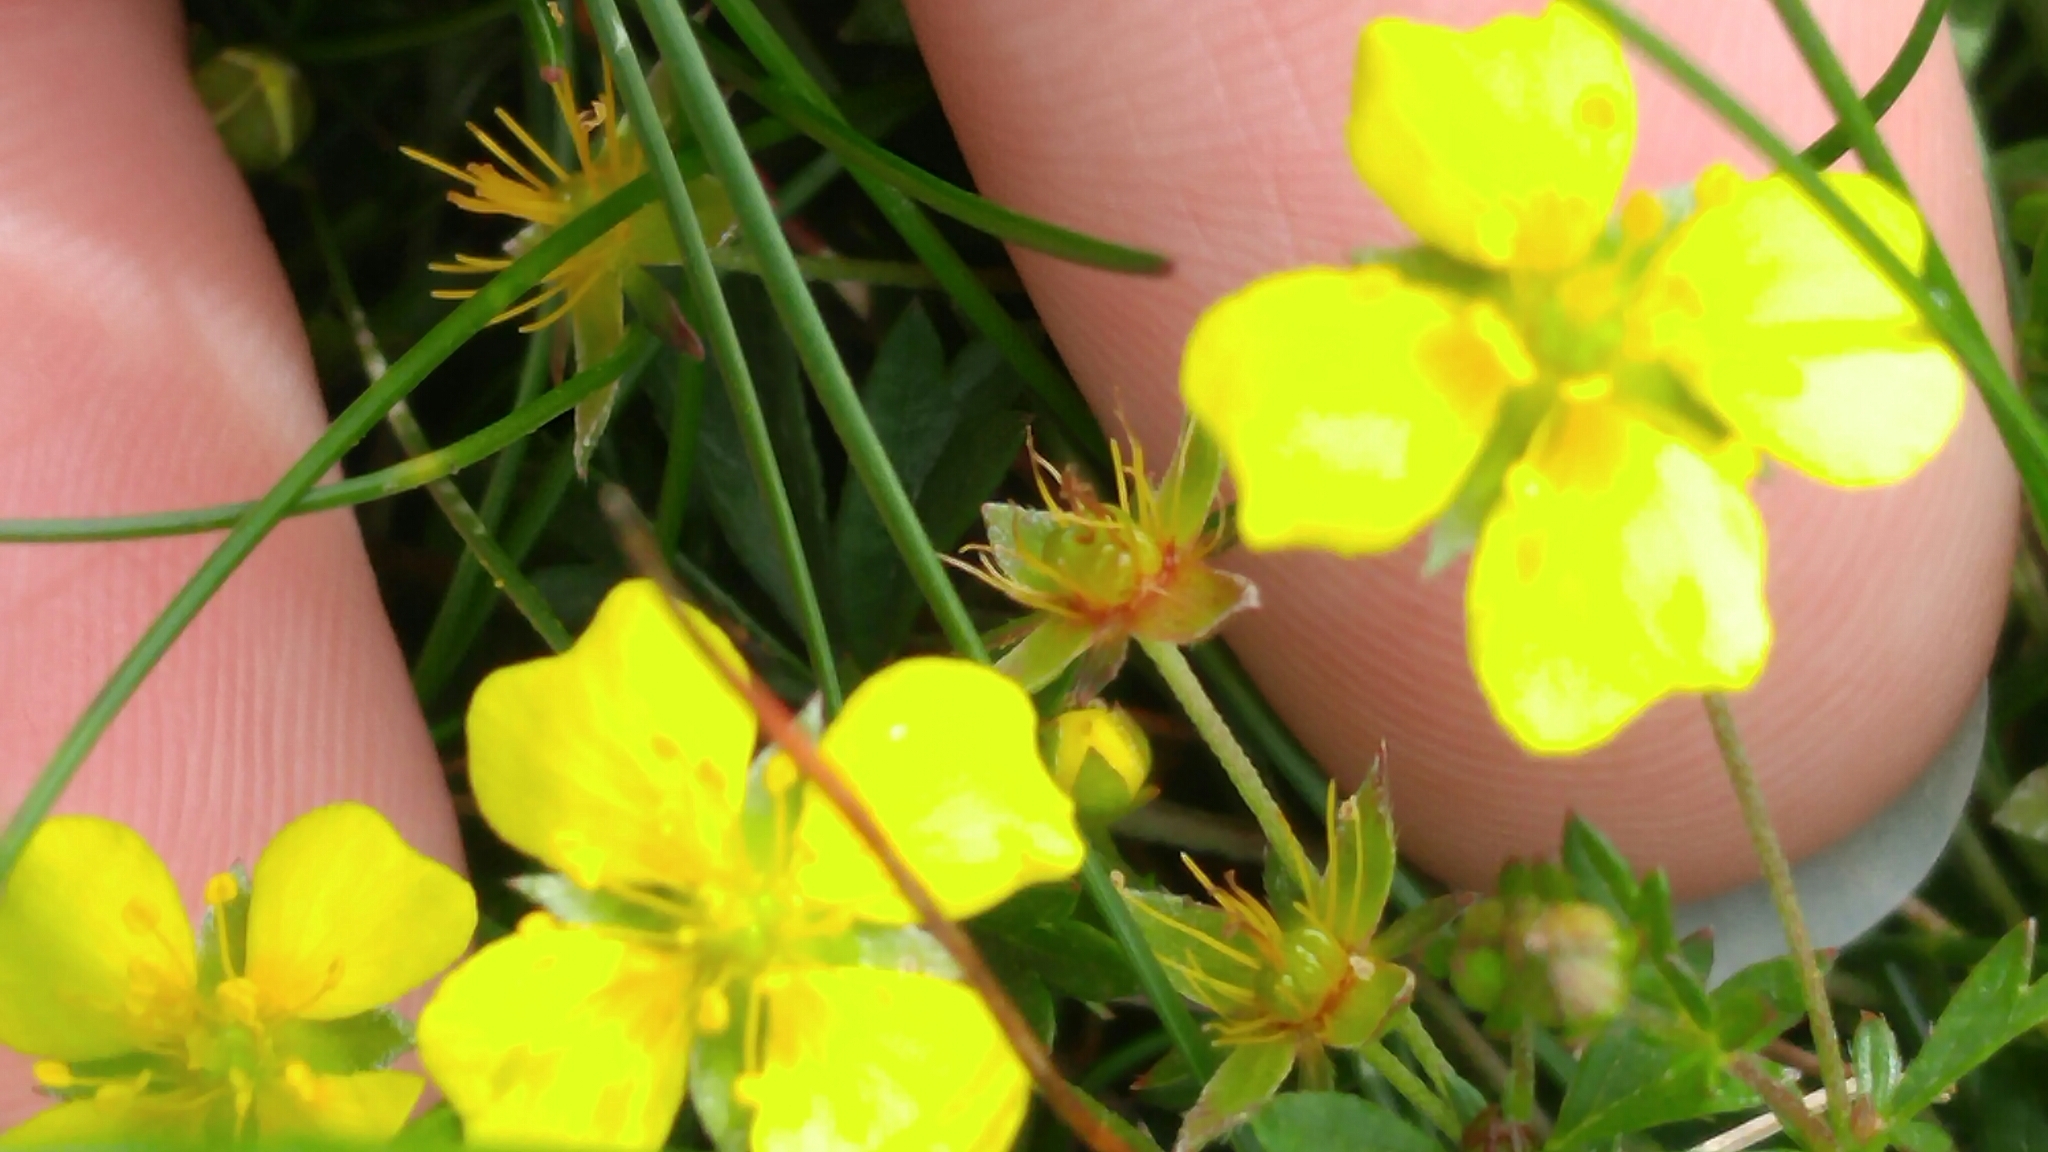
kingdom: Plantae
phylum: Tracheophyta
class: Magnoliopsida
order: Rosales
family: Rosaceae
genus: Potentilla
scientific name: Potentilla erecta
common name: Tormentil
